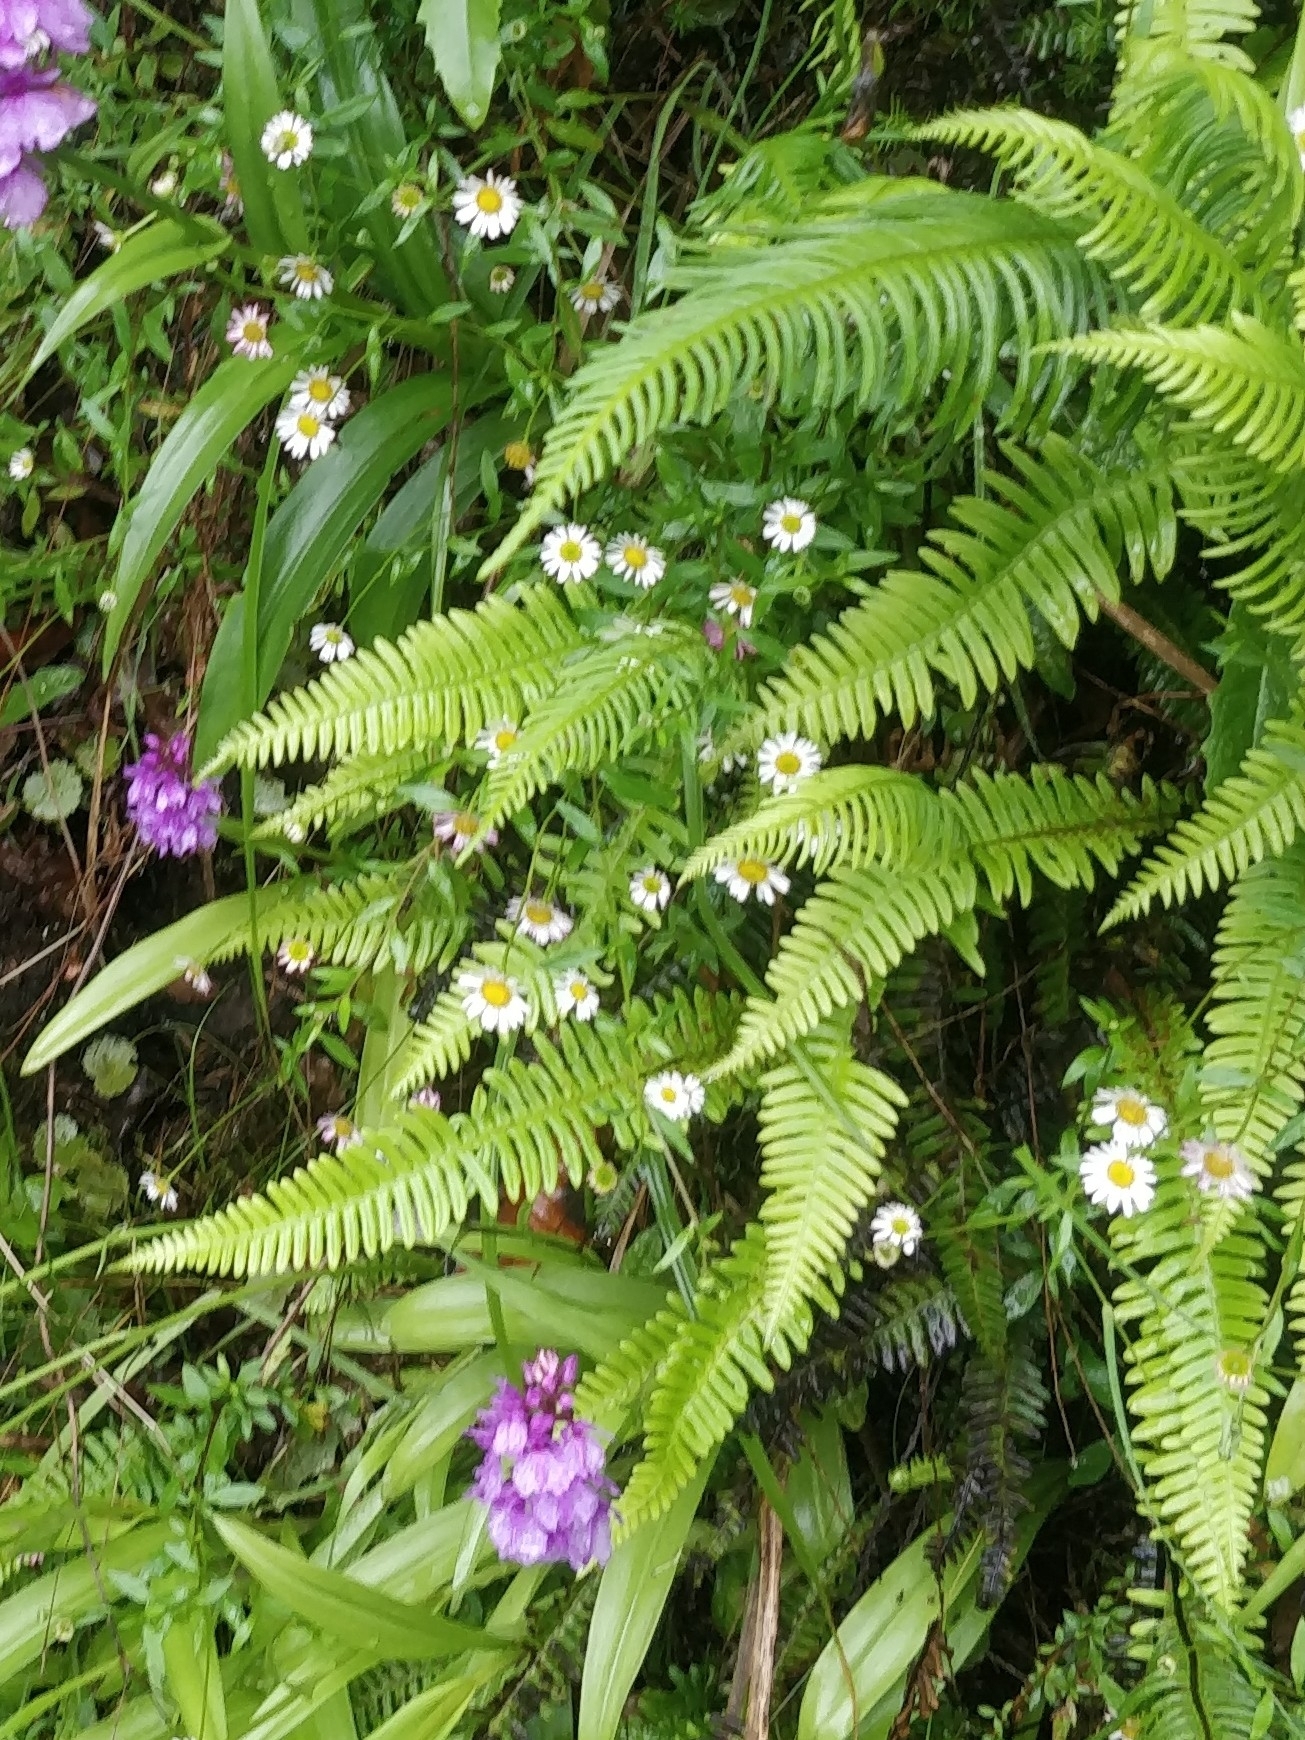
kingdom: Plantae
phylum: Tracheophyta
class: Polypodiopsida
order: Polypodiales
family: Blechnaceae
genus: Struthiopteris
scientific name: Struthiopteris spicant
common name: Deer fern
